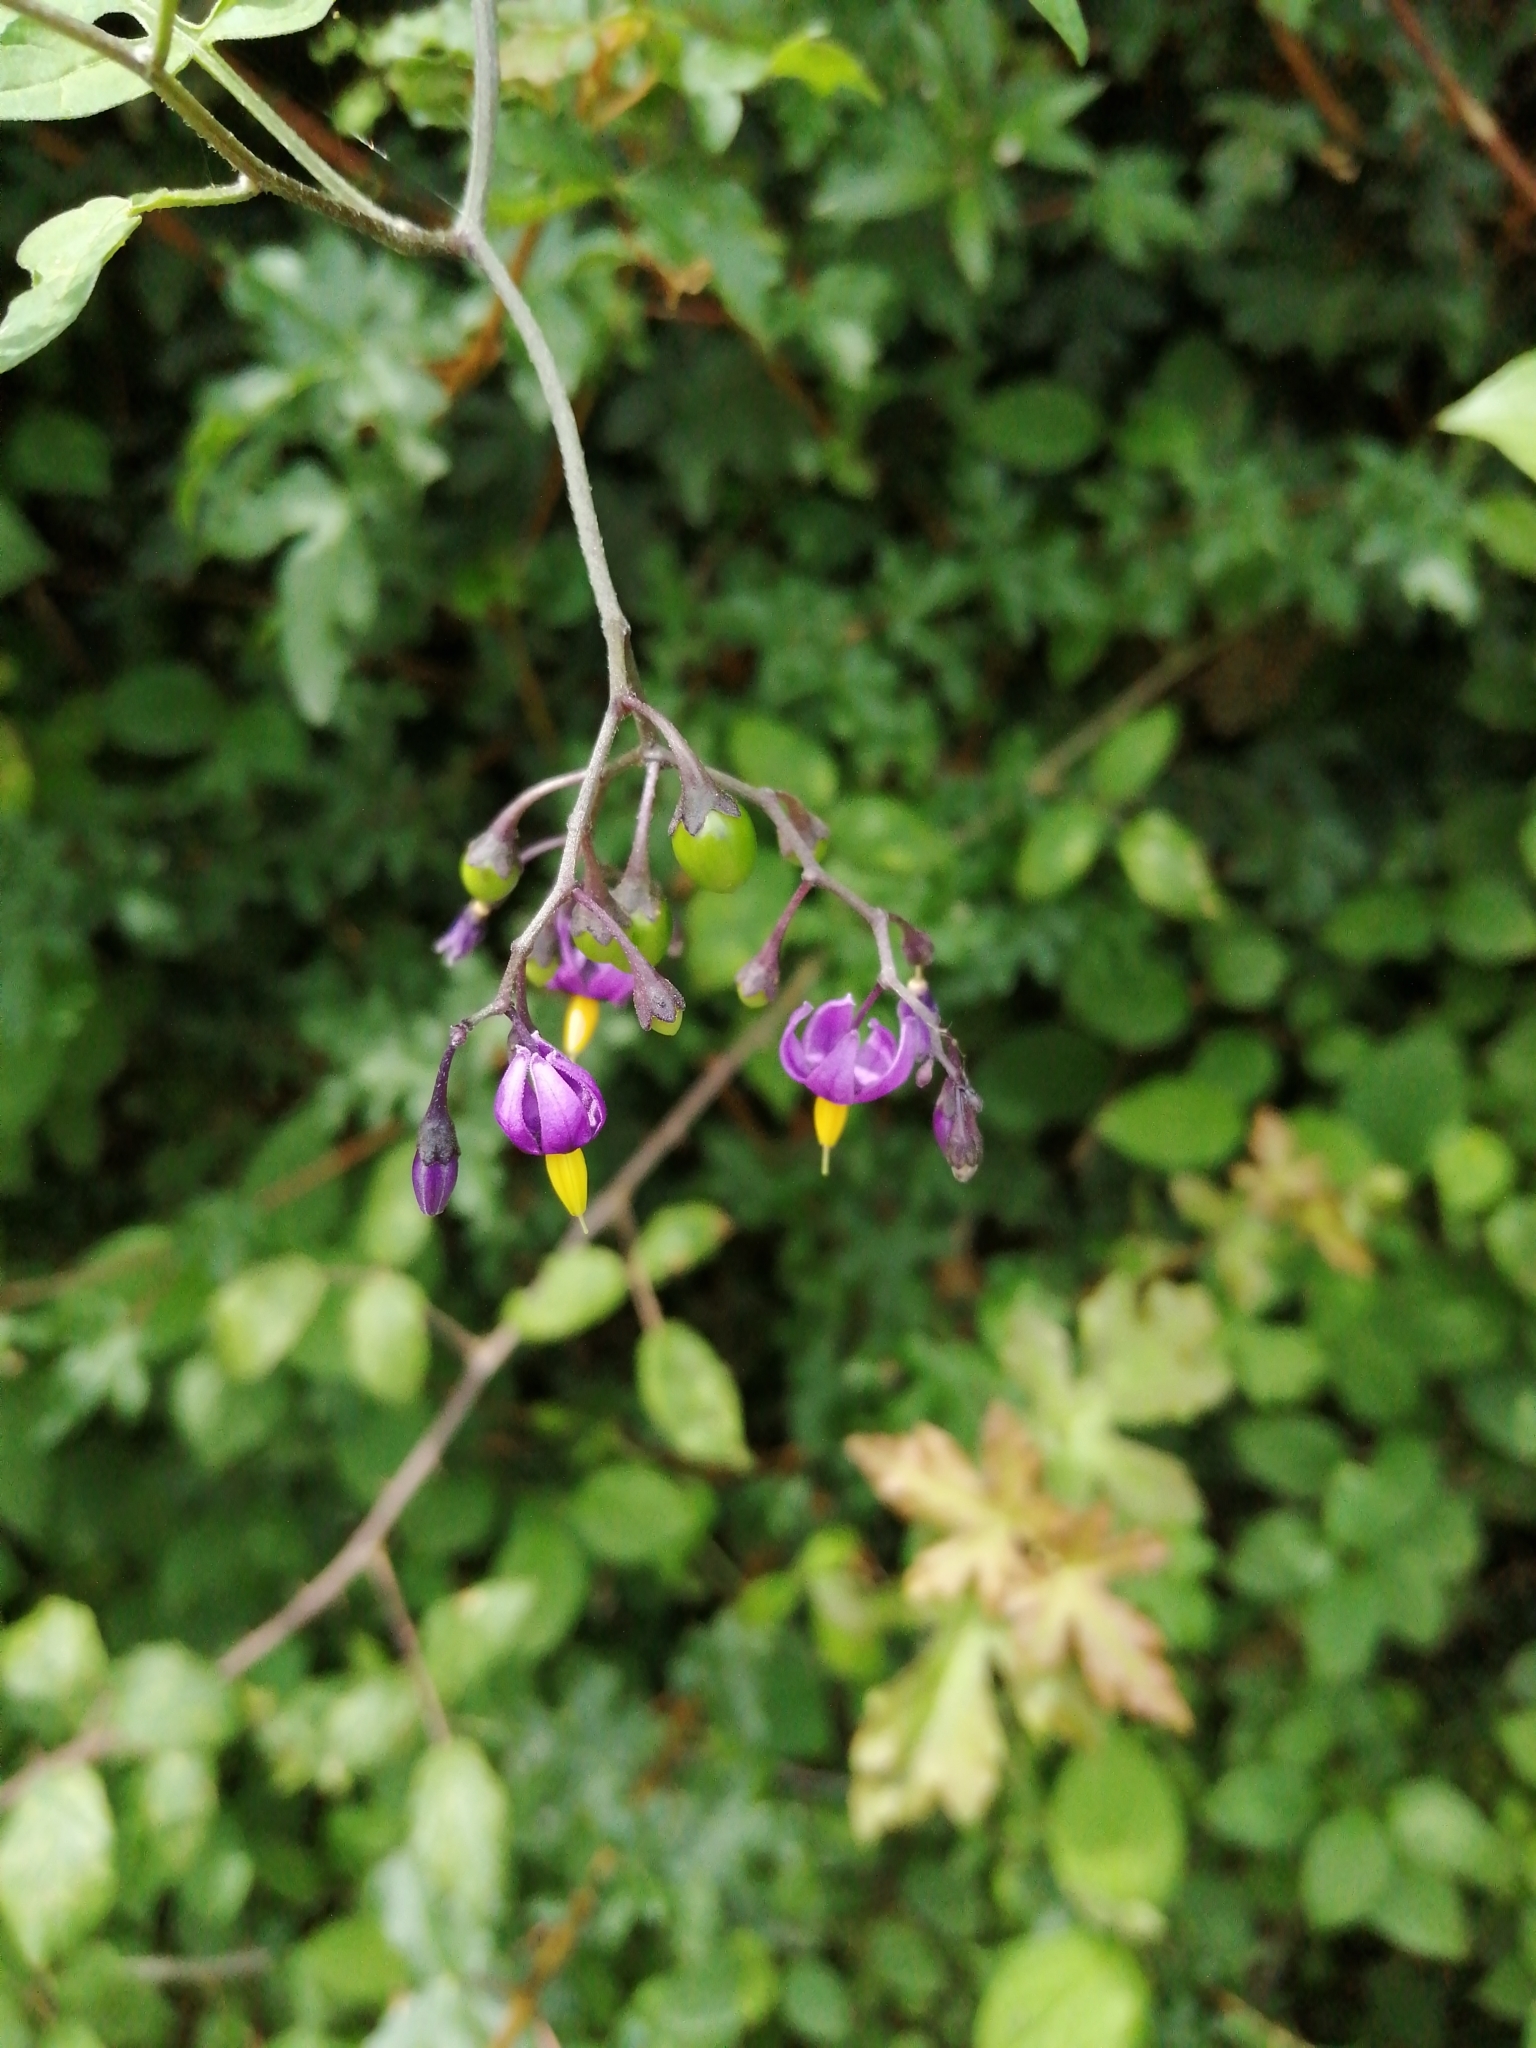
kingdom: Plantae
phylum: Tracheophyta
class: Magnoliopsida
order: Solanales
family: Solanaceae
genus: Solanum
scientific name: Solanum dulcamara
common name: Climbing nightshade
